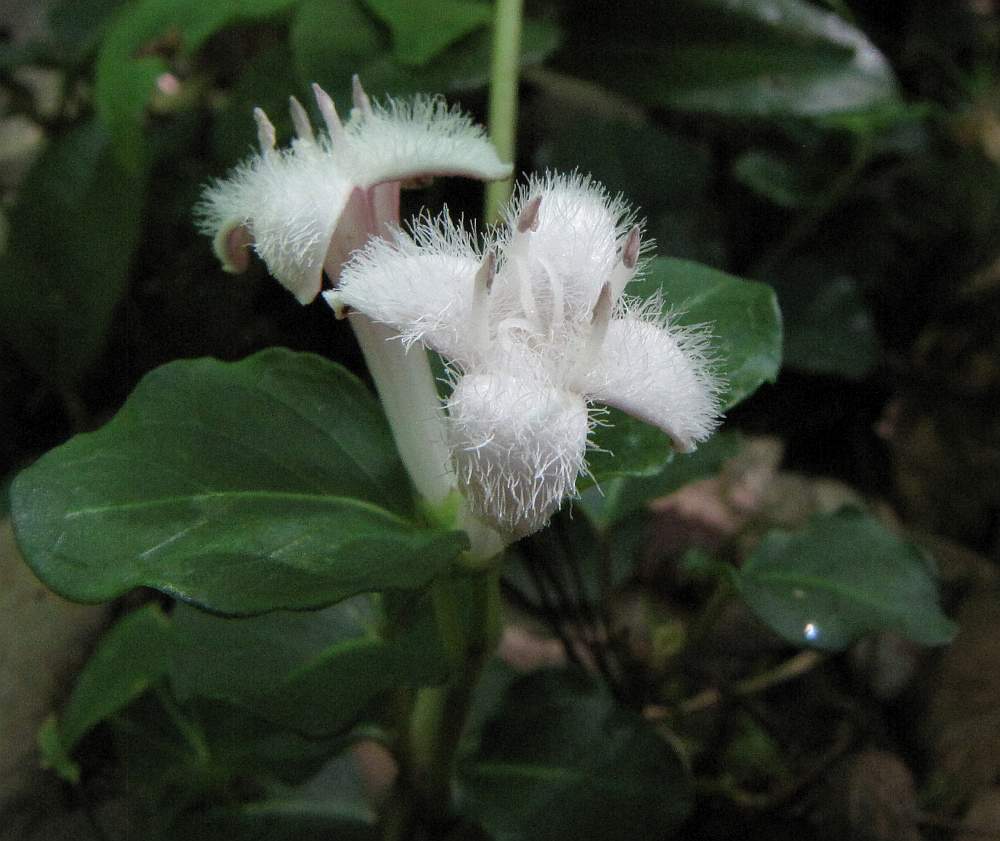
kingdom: Plantae
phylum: Tracheophyta
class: Magnoliopsida
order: Gentianales
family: Rubiaceae
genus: Mitchella
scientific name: Mitchella repens
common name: Partridge-berry
